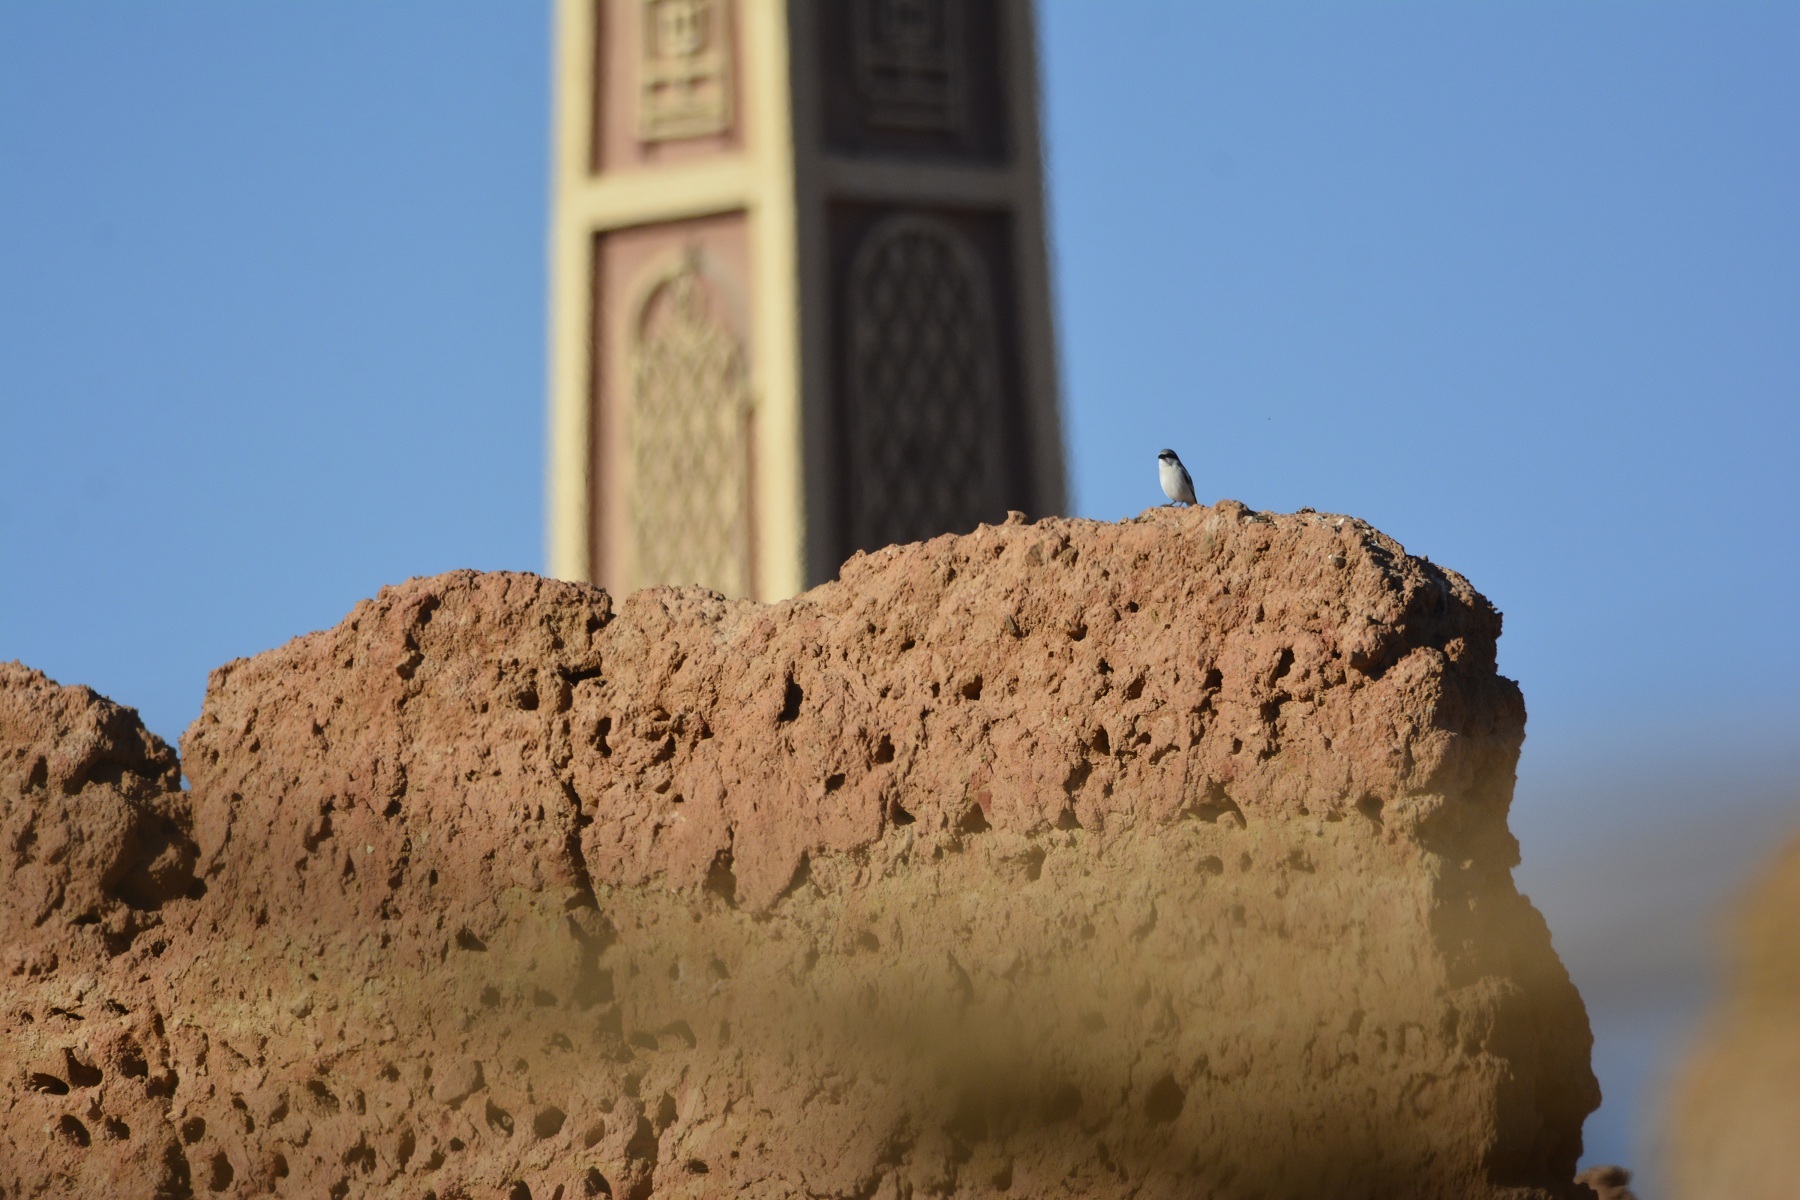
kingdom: Animalia
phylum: Chordata
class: Aves
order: Passeriformes
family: Laniidae
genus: Lanius
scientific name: Lanius excubitor
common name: Great grey shrike
